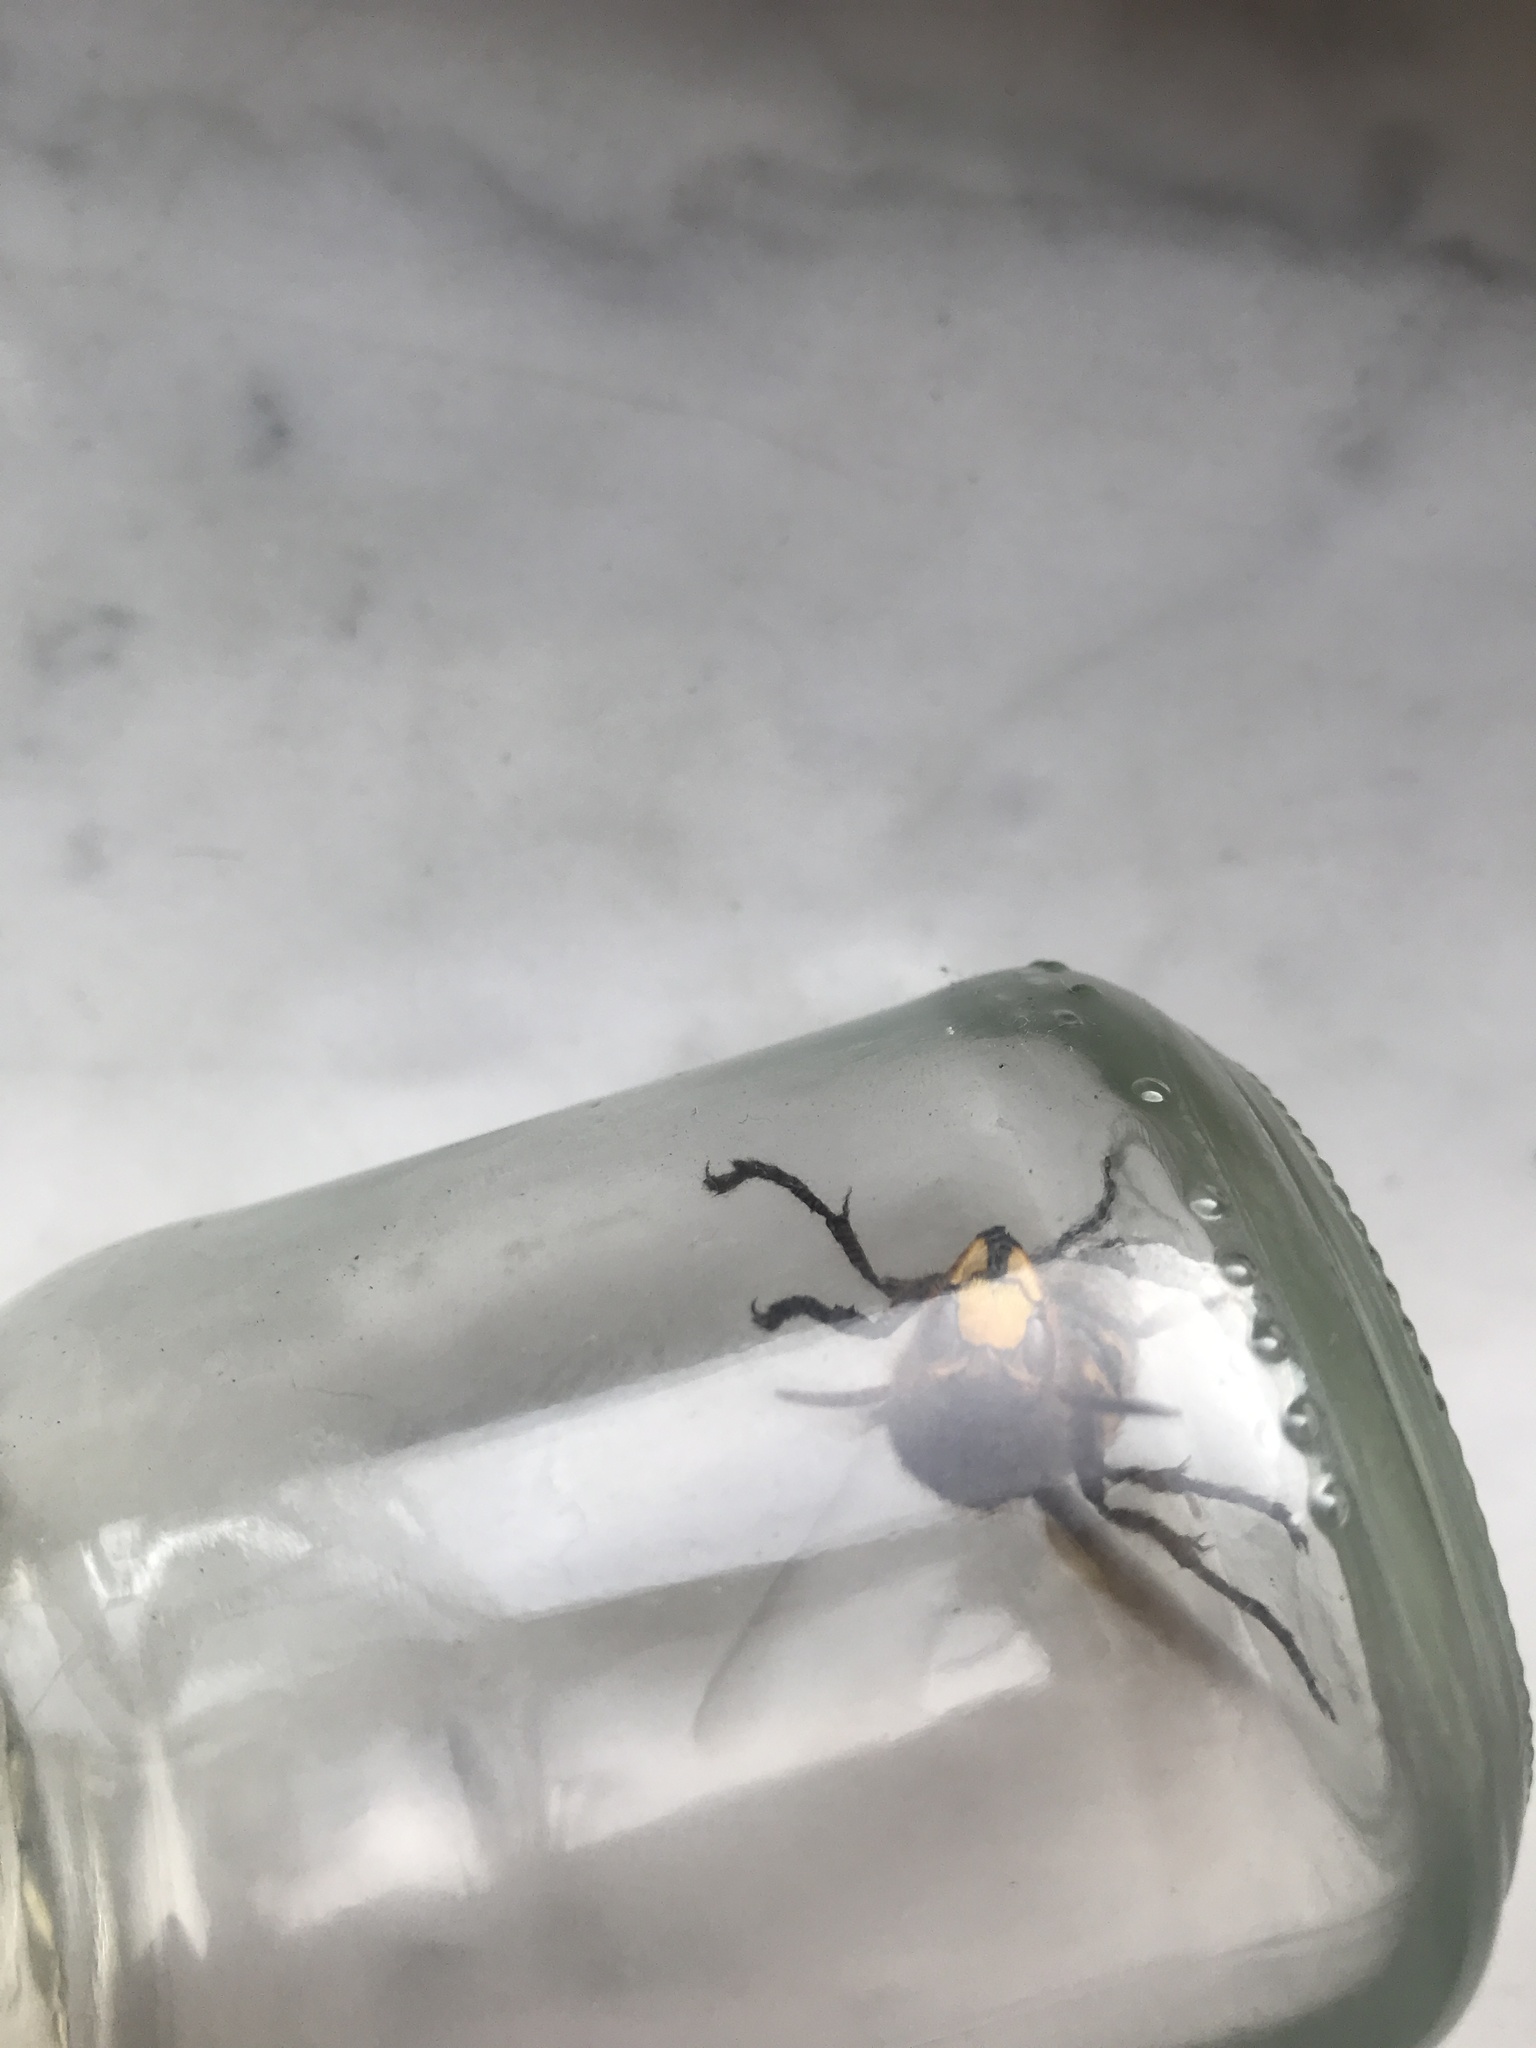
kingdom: Animalia
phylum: Arthropoda
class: Insecta
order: Hymenoptera
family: Vespidae
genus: Vespa
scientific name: Vespa crabro
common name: Hornet
